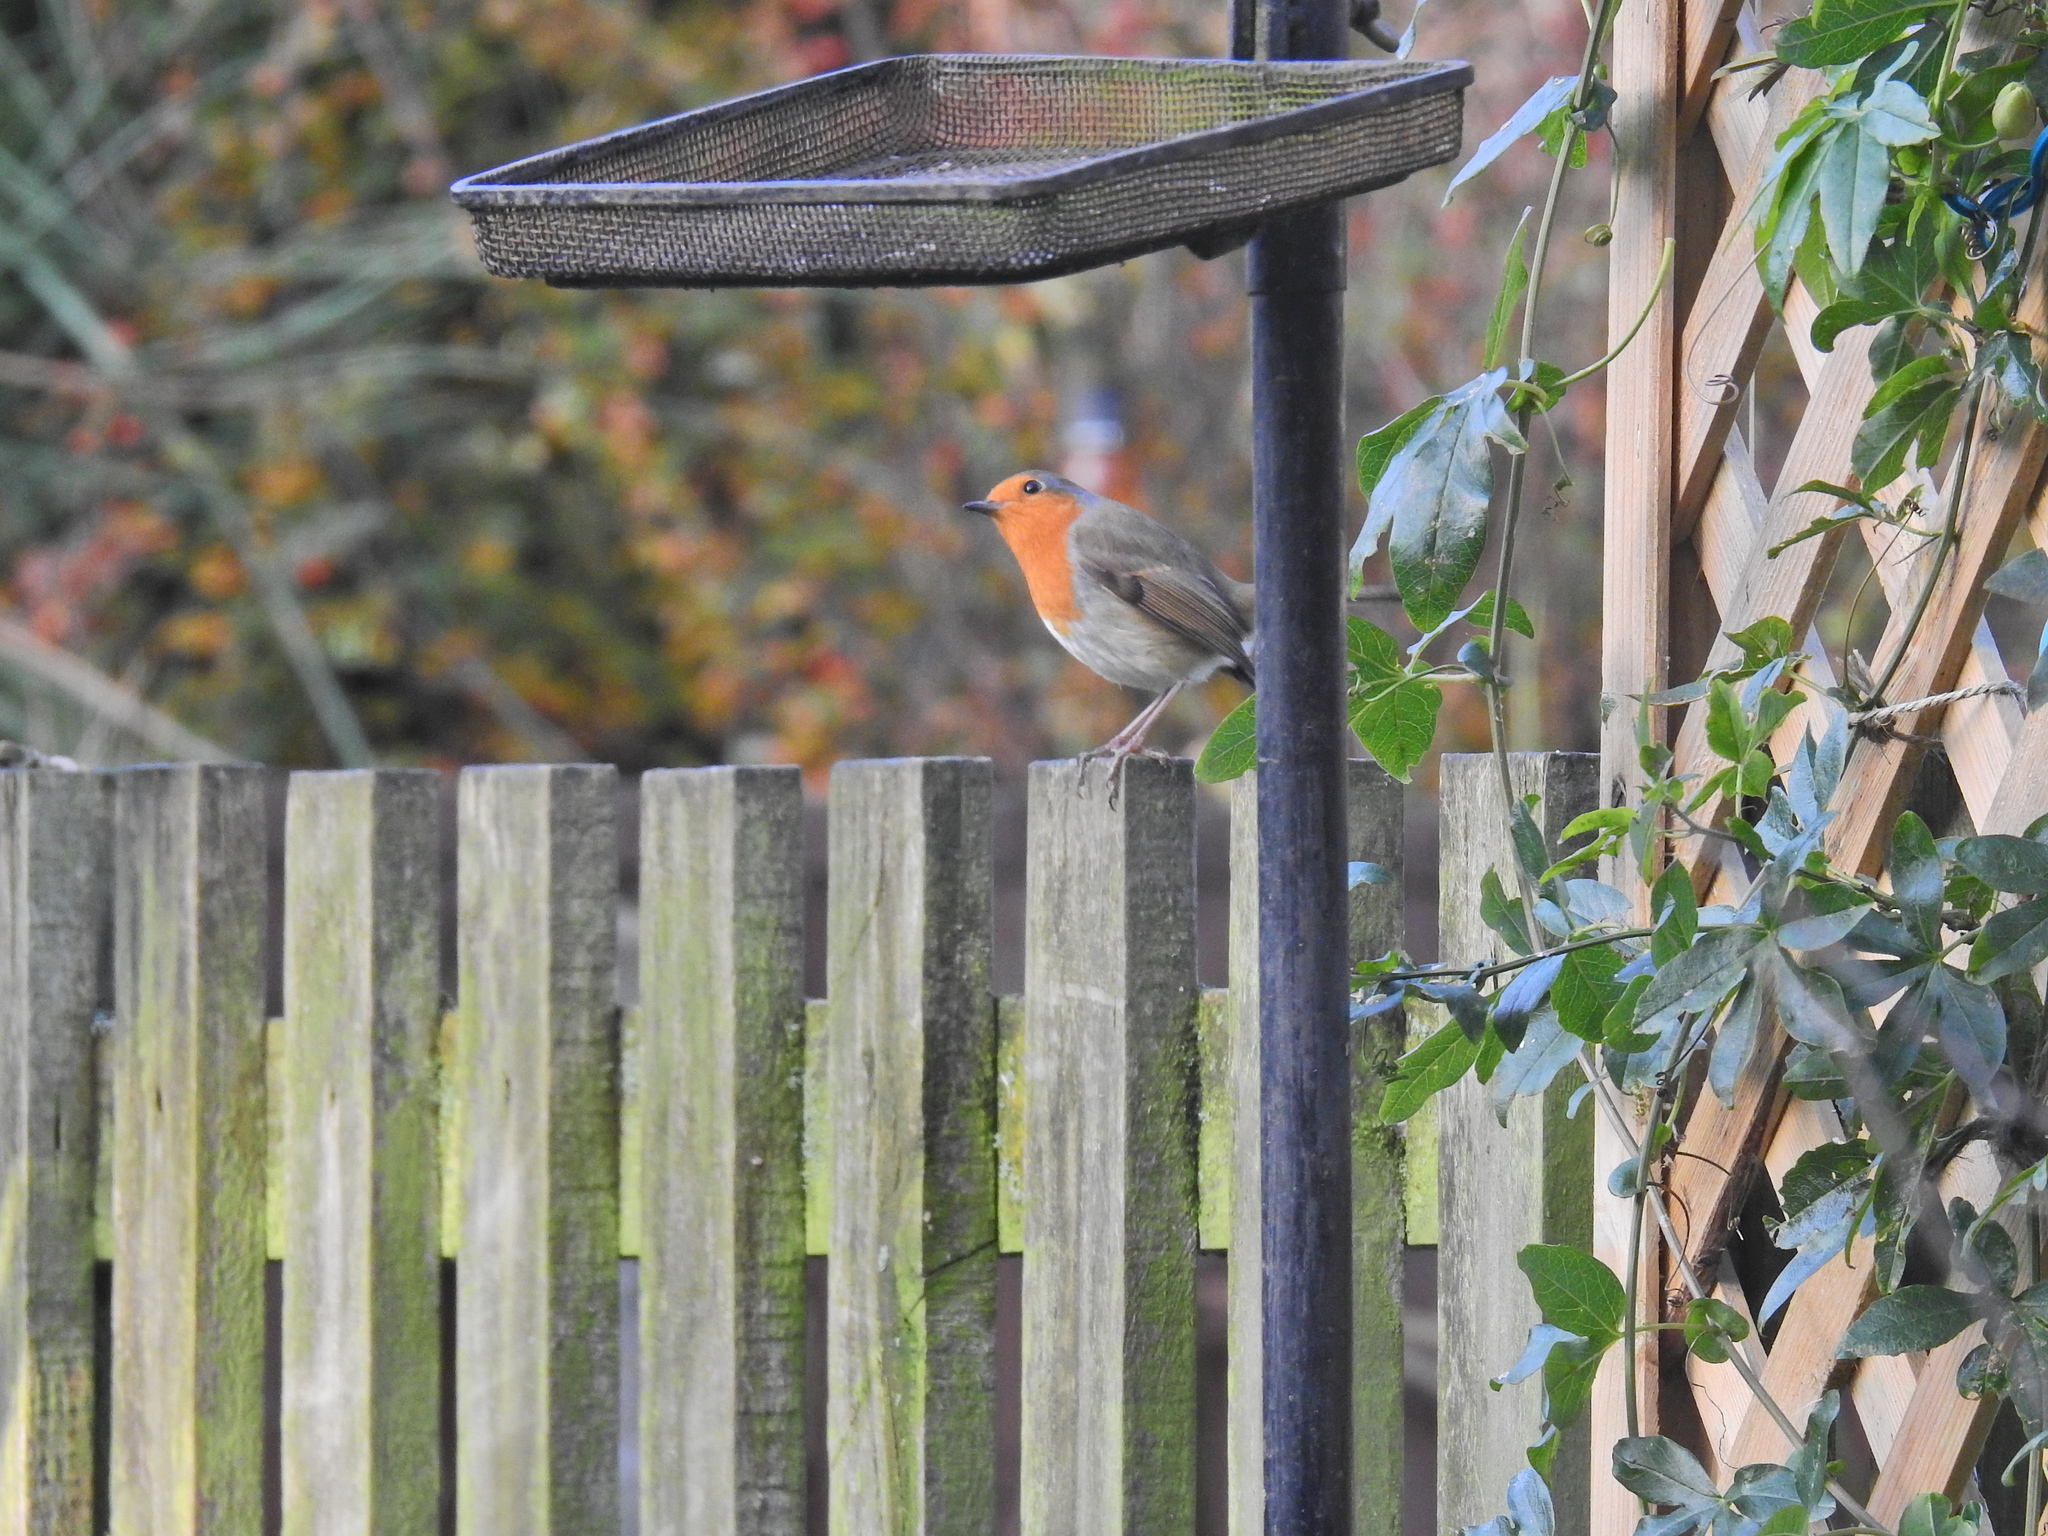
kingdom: Animalia
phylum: Chordata
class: Aves
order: Passeriformes
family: Muscicapidae
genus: Erithacus
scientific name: Erithacus rubecula
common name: European robin
